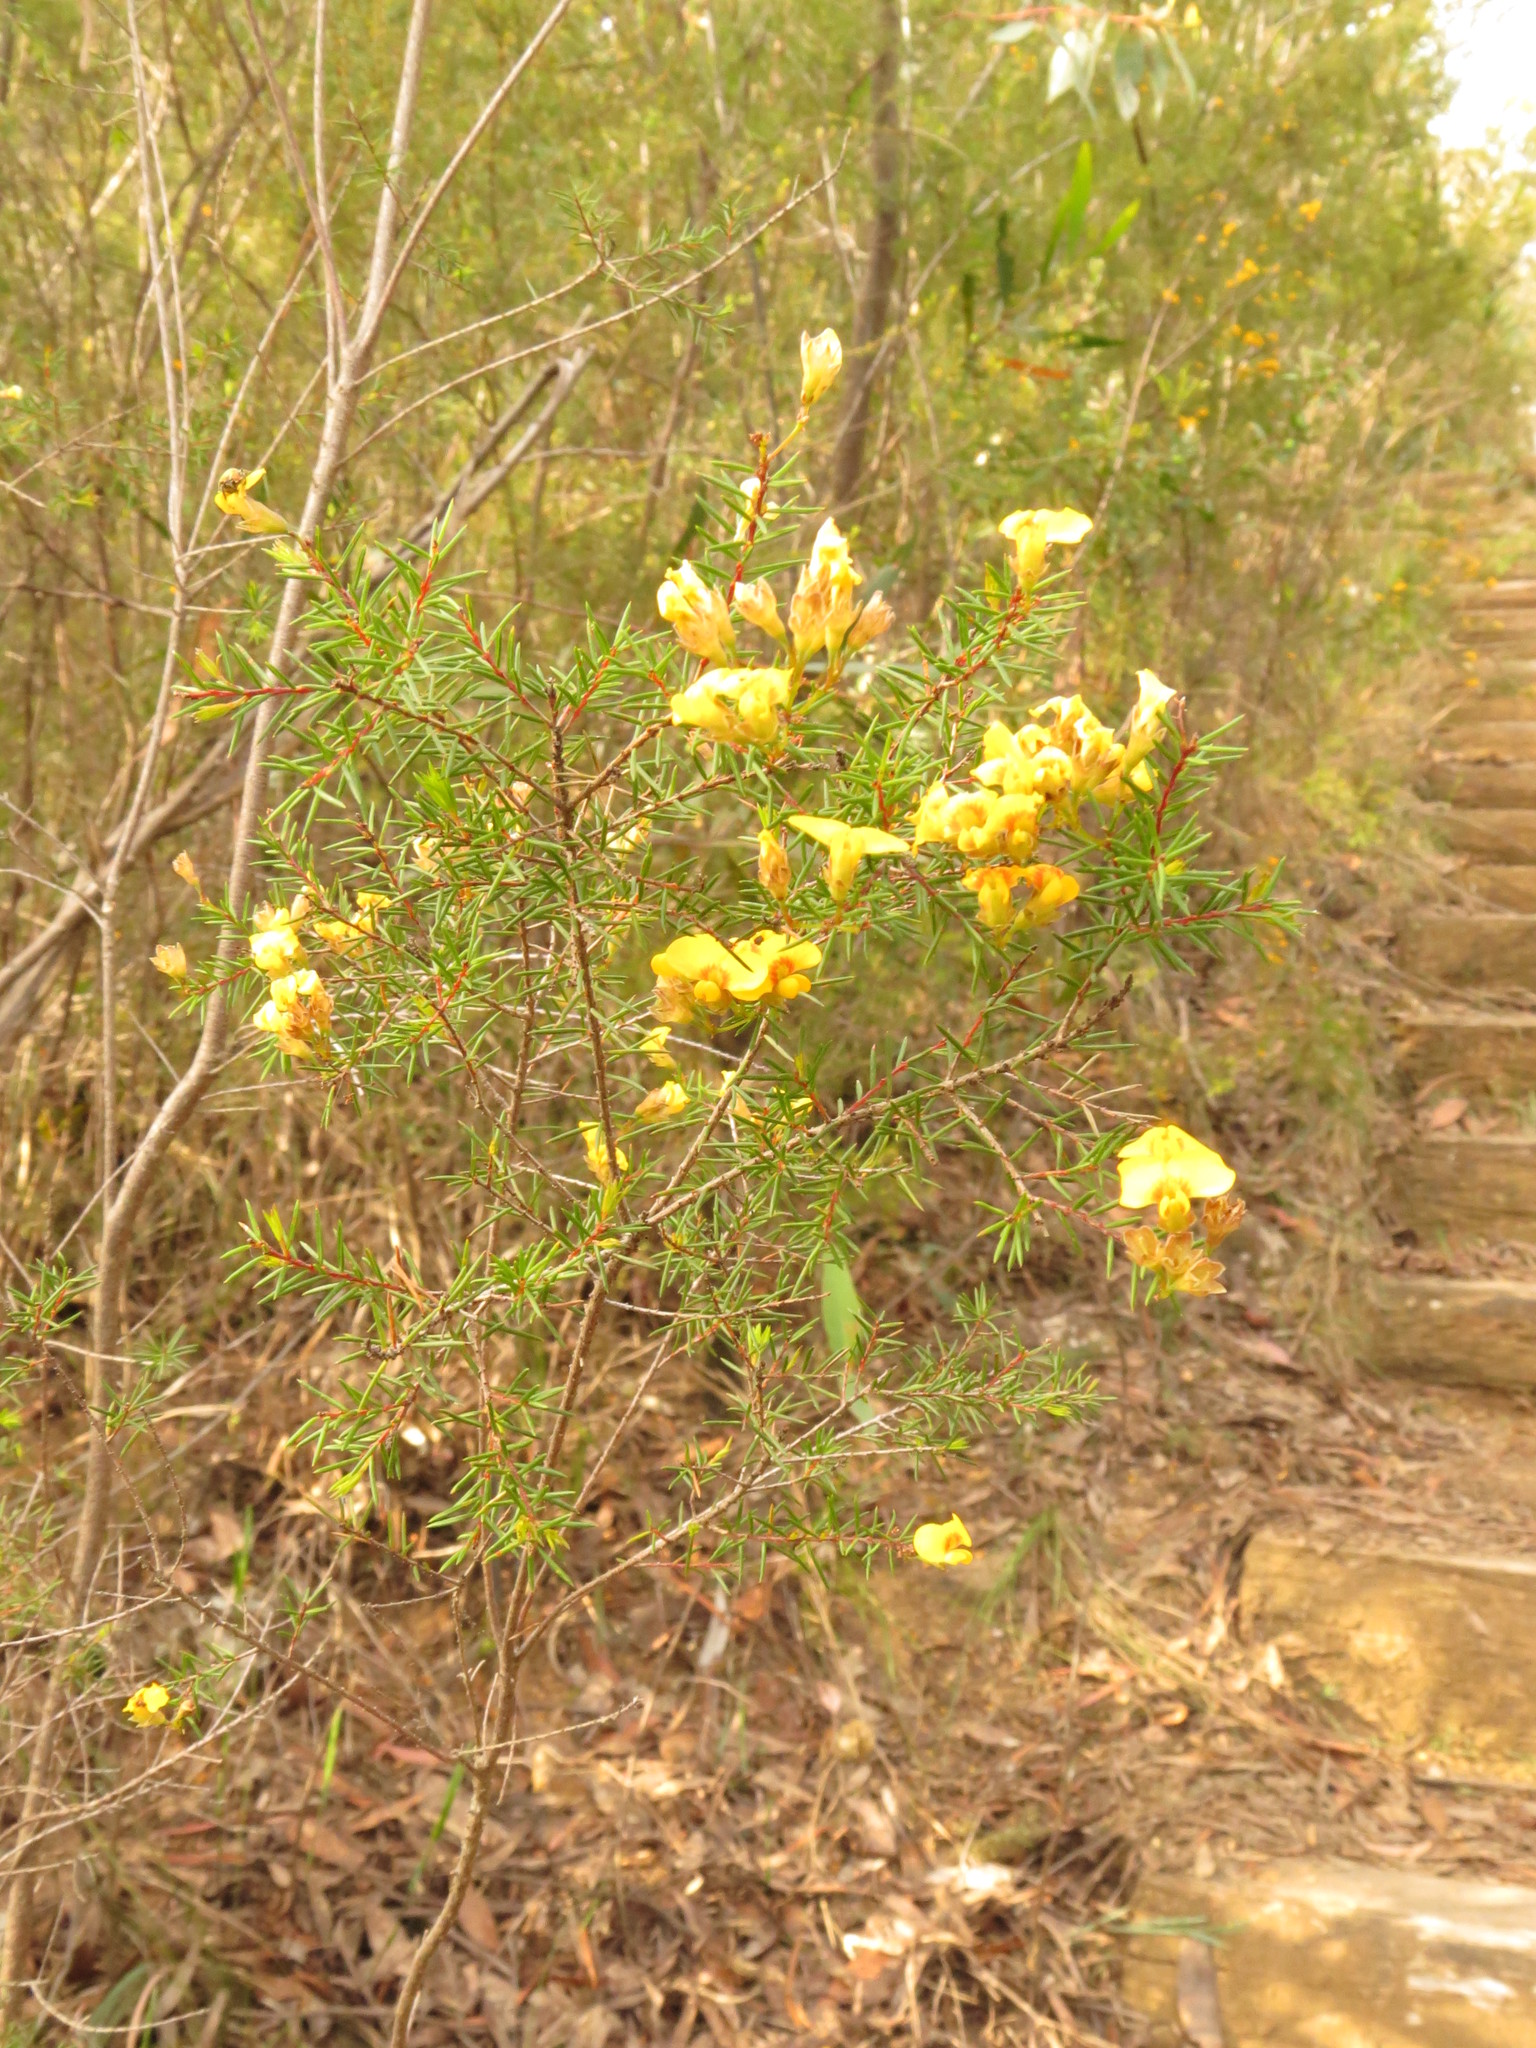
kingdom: Plantae
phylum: Tracheophyta
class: Magnoliopsida
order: Fabales
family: Fabaceae
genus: Dillwynia
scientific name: Dillwynia retorta
